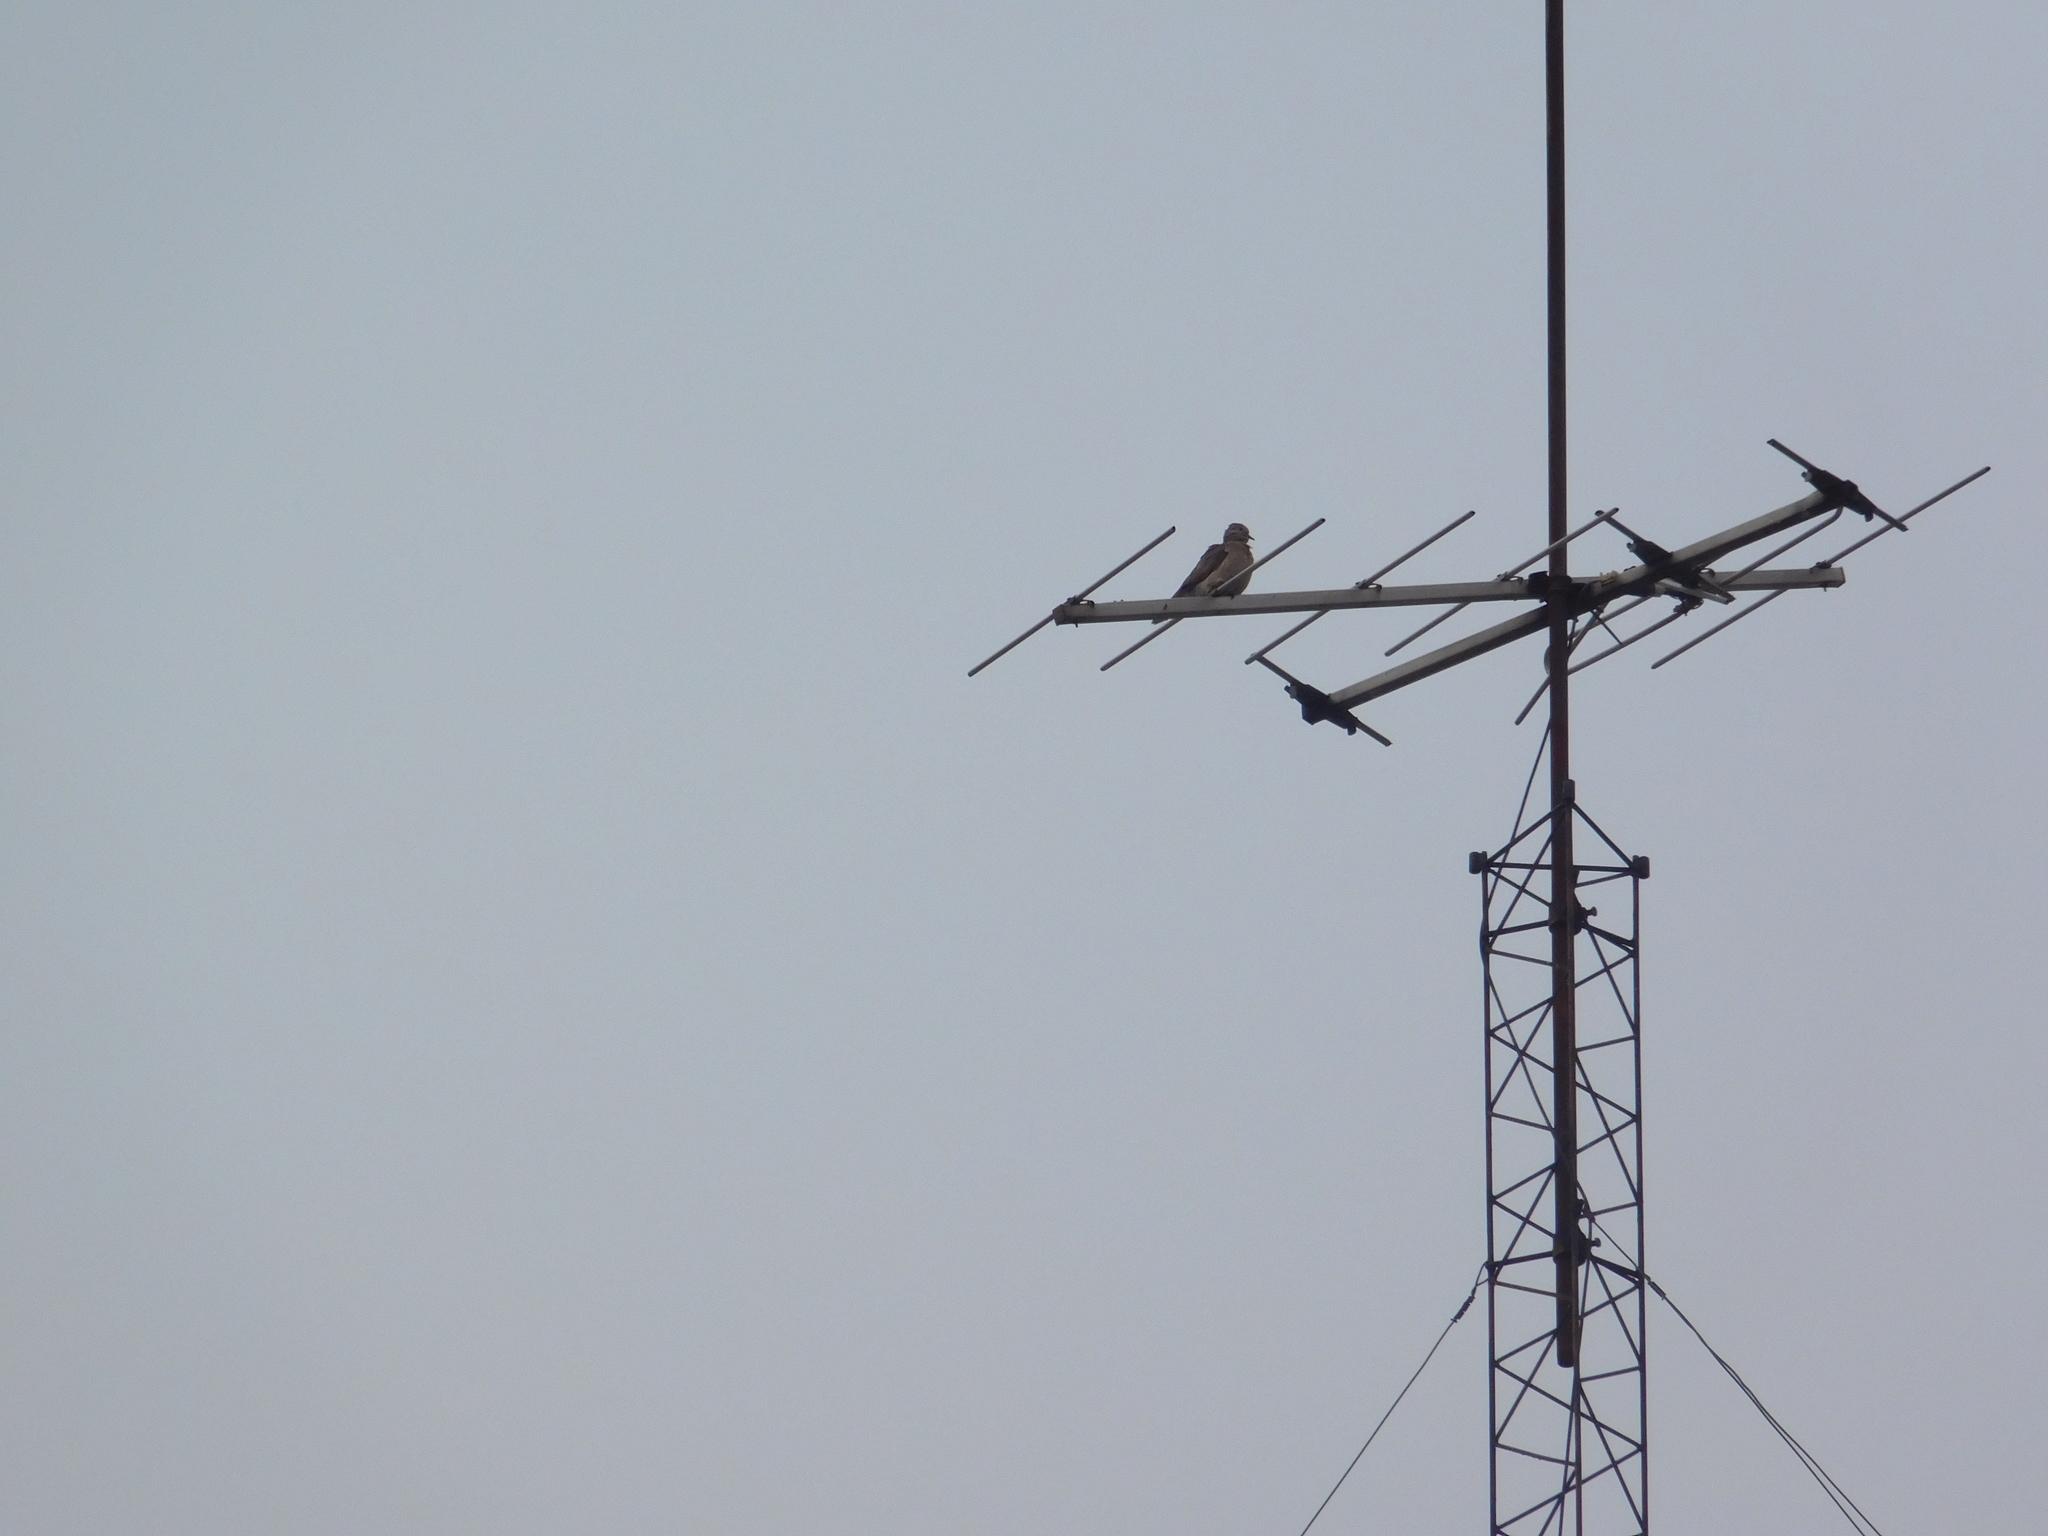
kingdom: Animalia
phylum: Chordata
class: Aves
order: Columbiformes
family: Columbidae
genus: Zenaida
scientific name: Zenaida auriculata
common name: Eared dove
